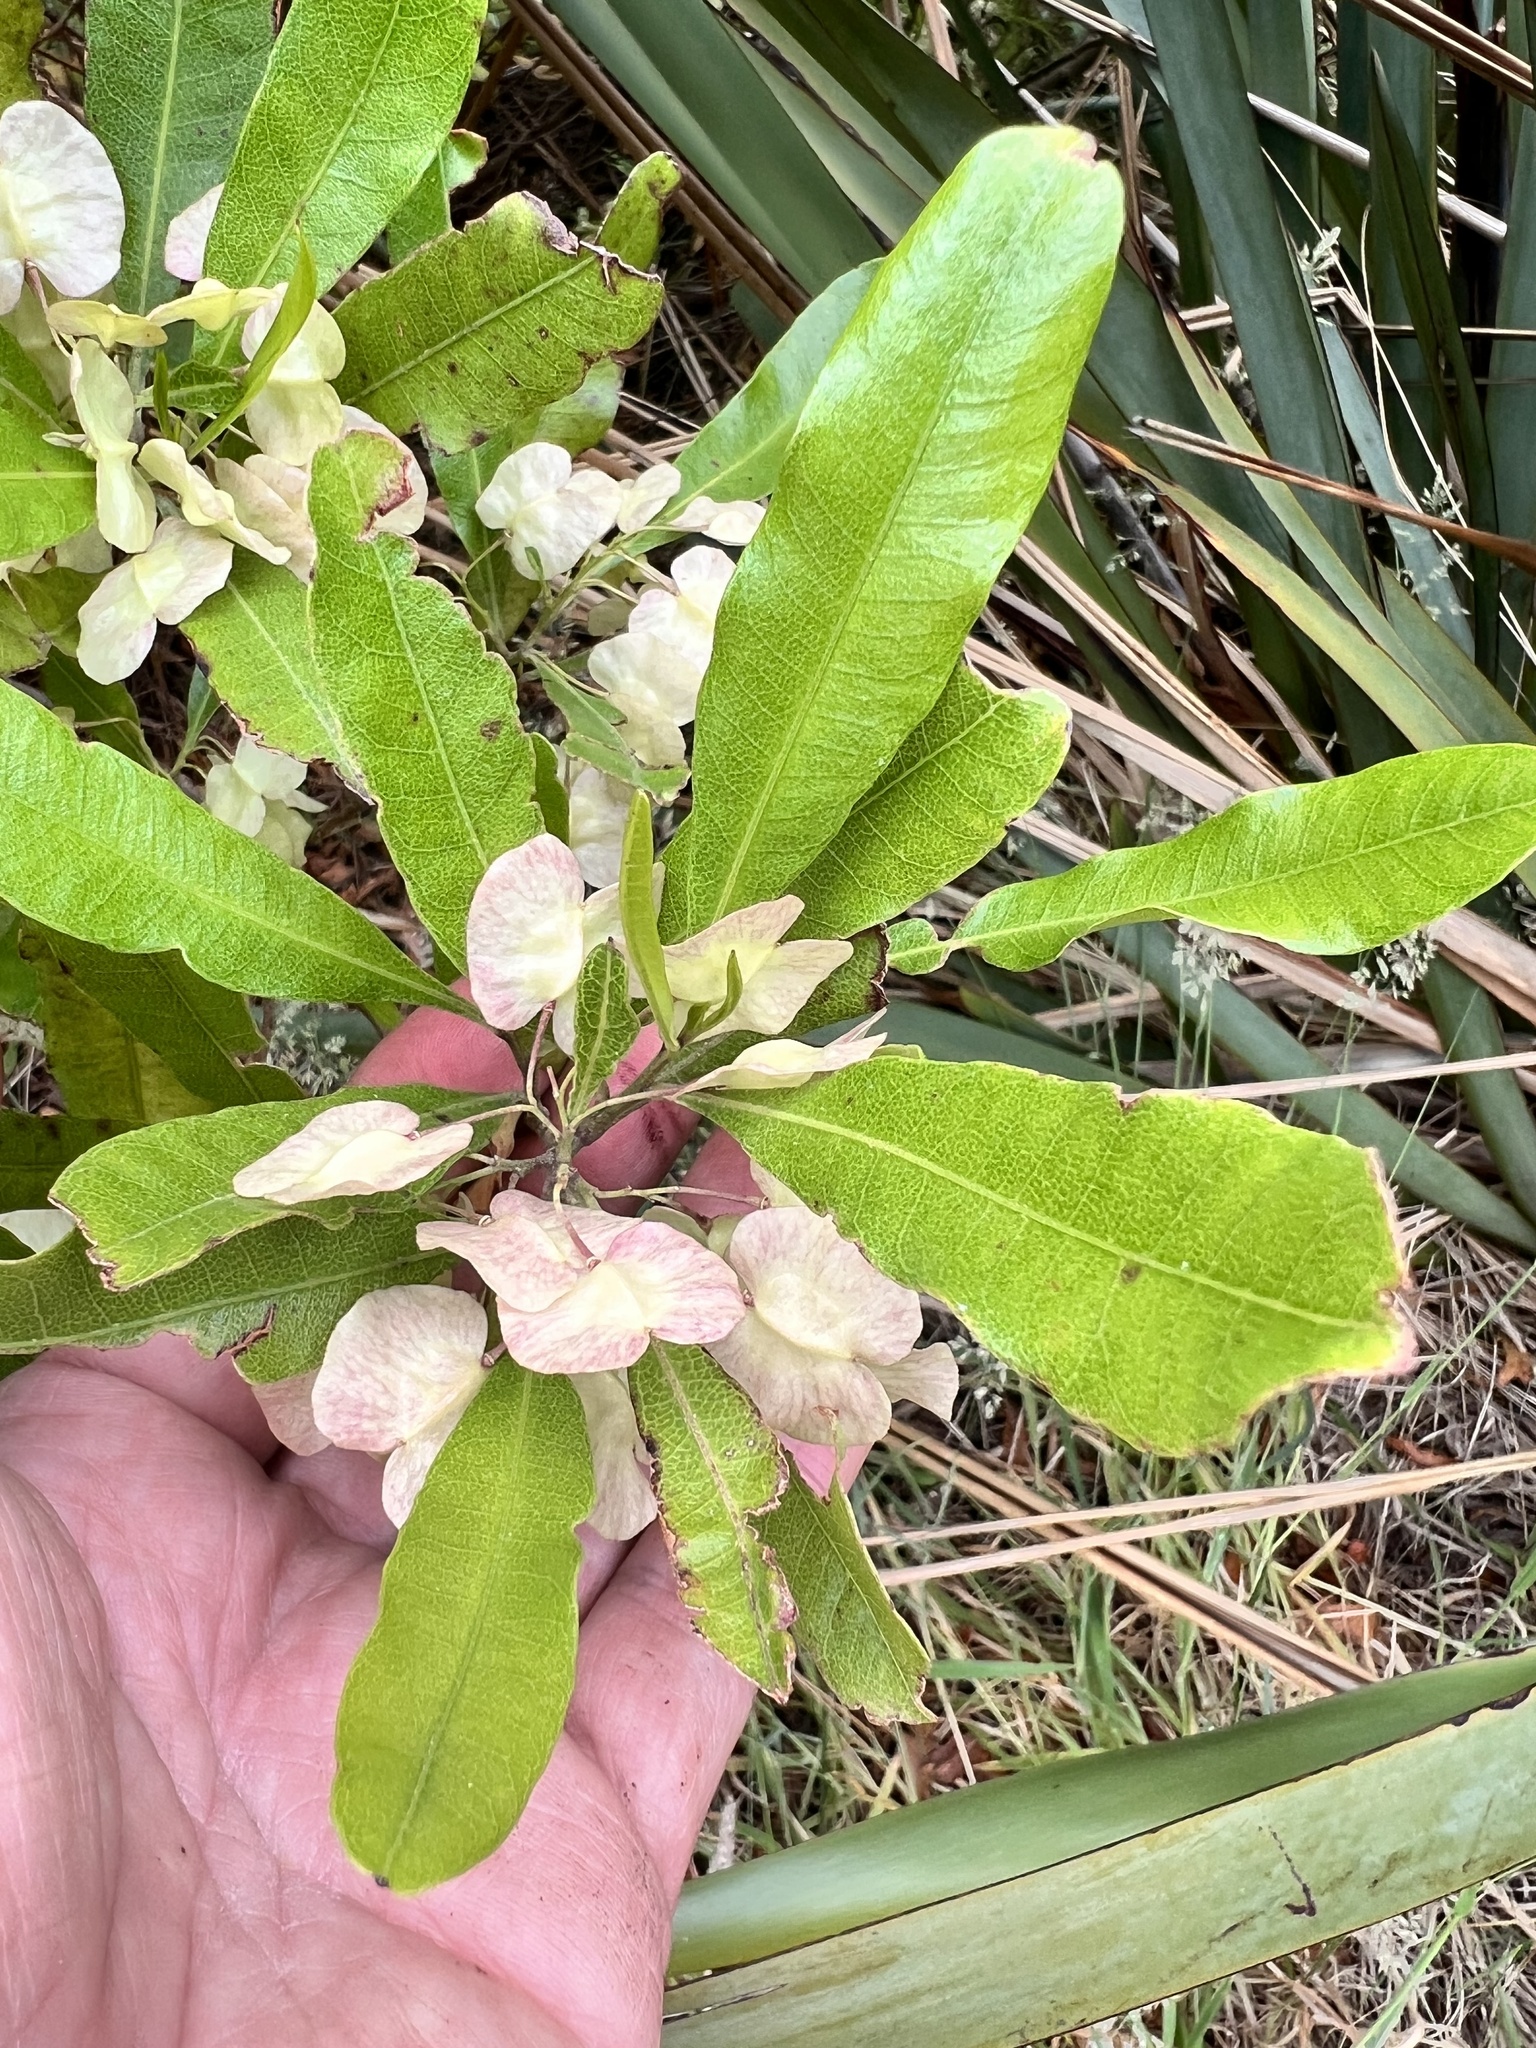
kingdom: Plantae
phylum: Tracheophyta
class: Magnoliopsida
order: Sapindales
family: Sapindaceae
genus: Dodonaea
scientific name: Dodonaea viscosa
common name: Hopbush
